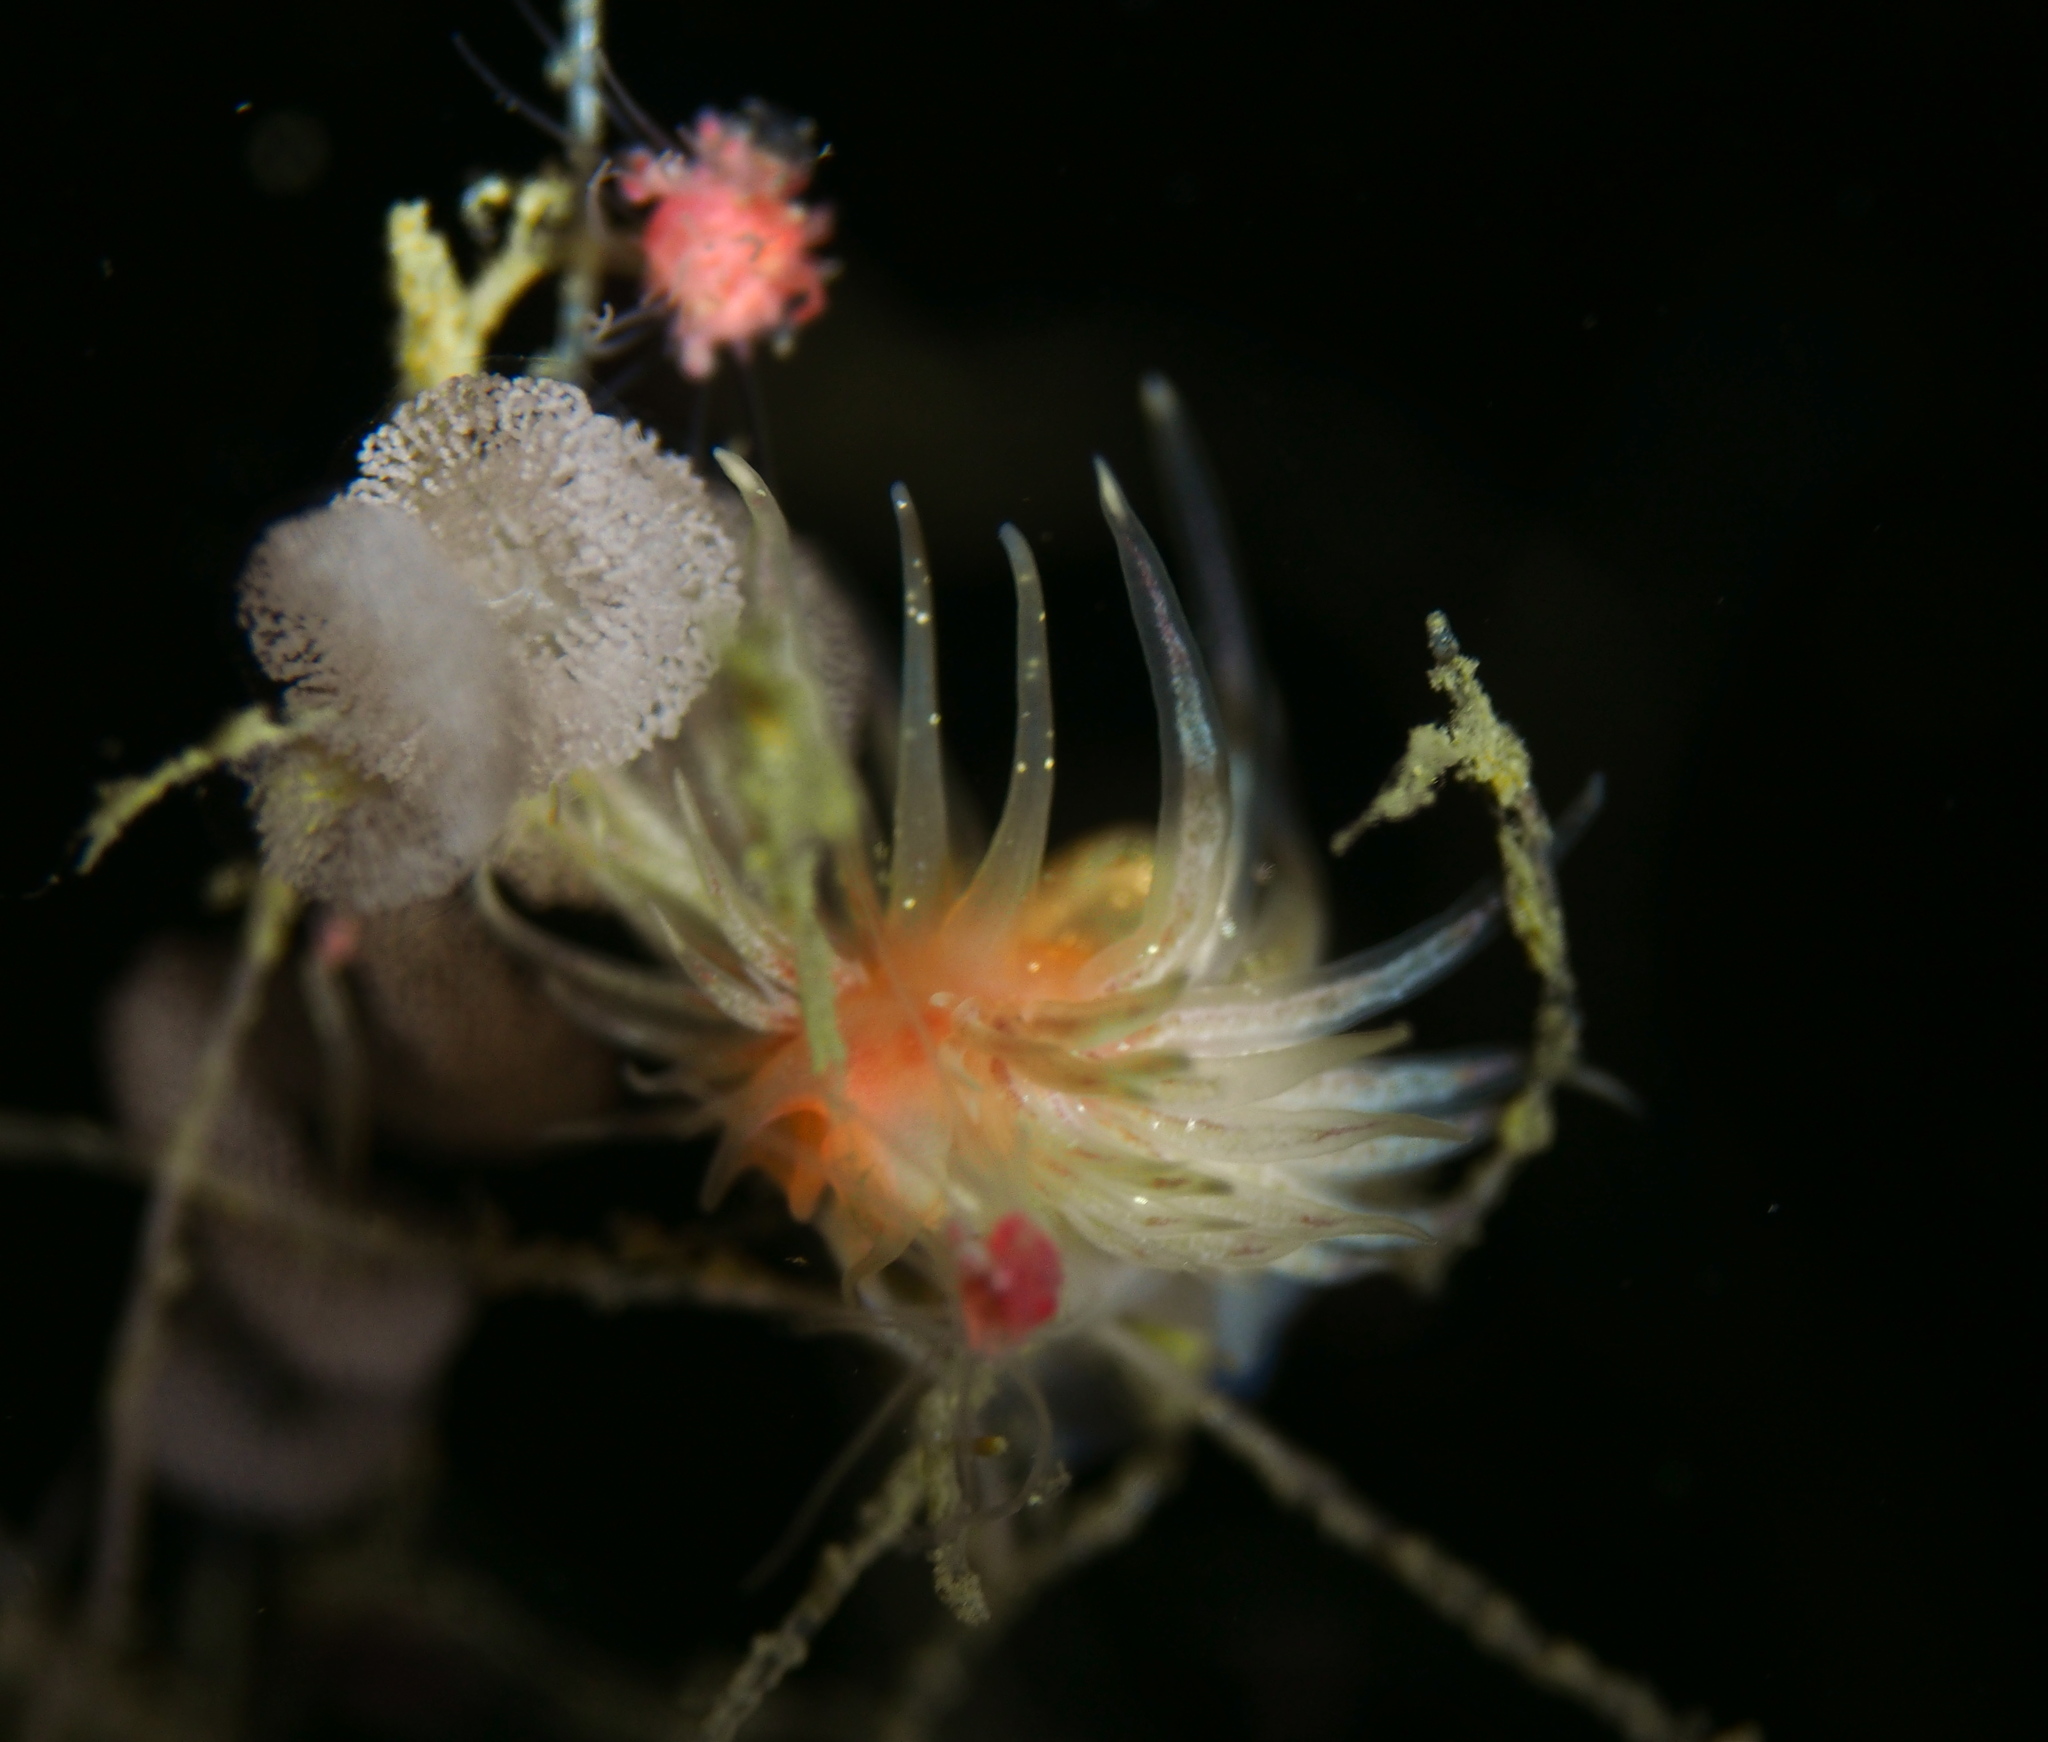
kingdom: Animalia
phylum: Mollusca
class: Gastropoda
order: Nudibranchia
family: Cumanotidae
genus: Cumanotus
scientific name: Cumanotus beaumonti
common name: Polyp aeolis
